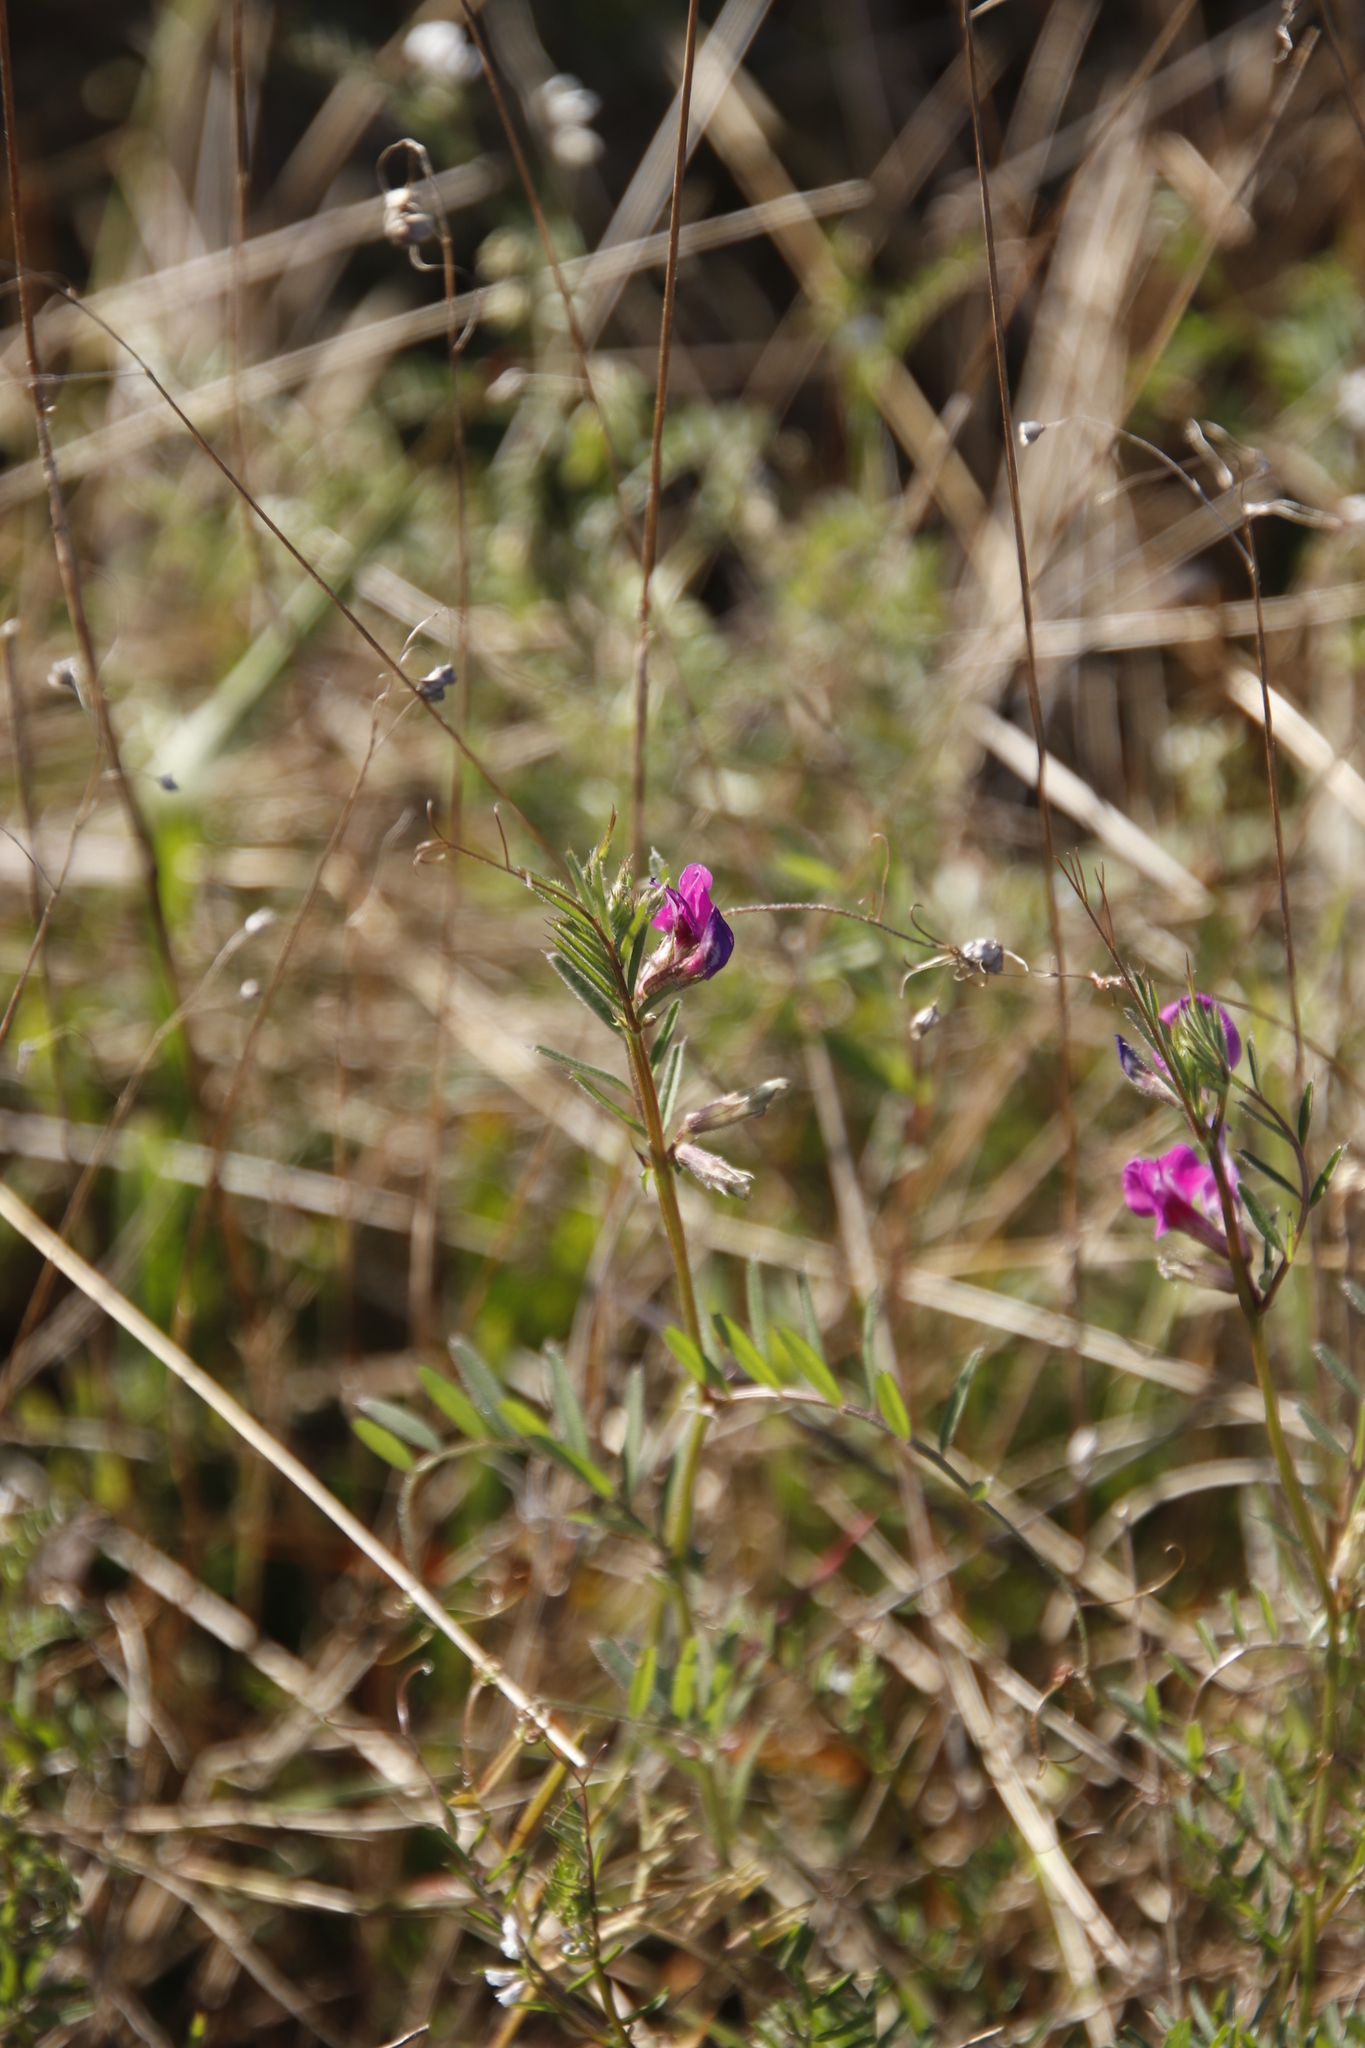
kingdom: Plantae
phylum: Tracheophyta
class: Magnoliopsida
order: Fabales
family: Fabaceae
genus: Vicia
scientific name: Vicia sativa
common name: Garden vetch
